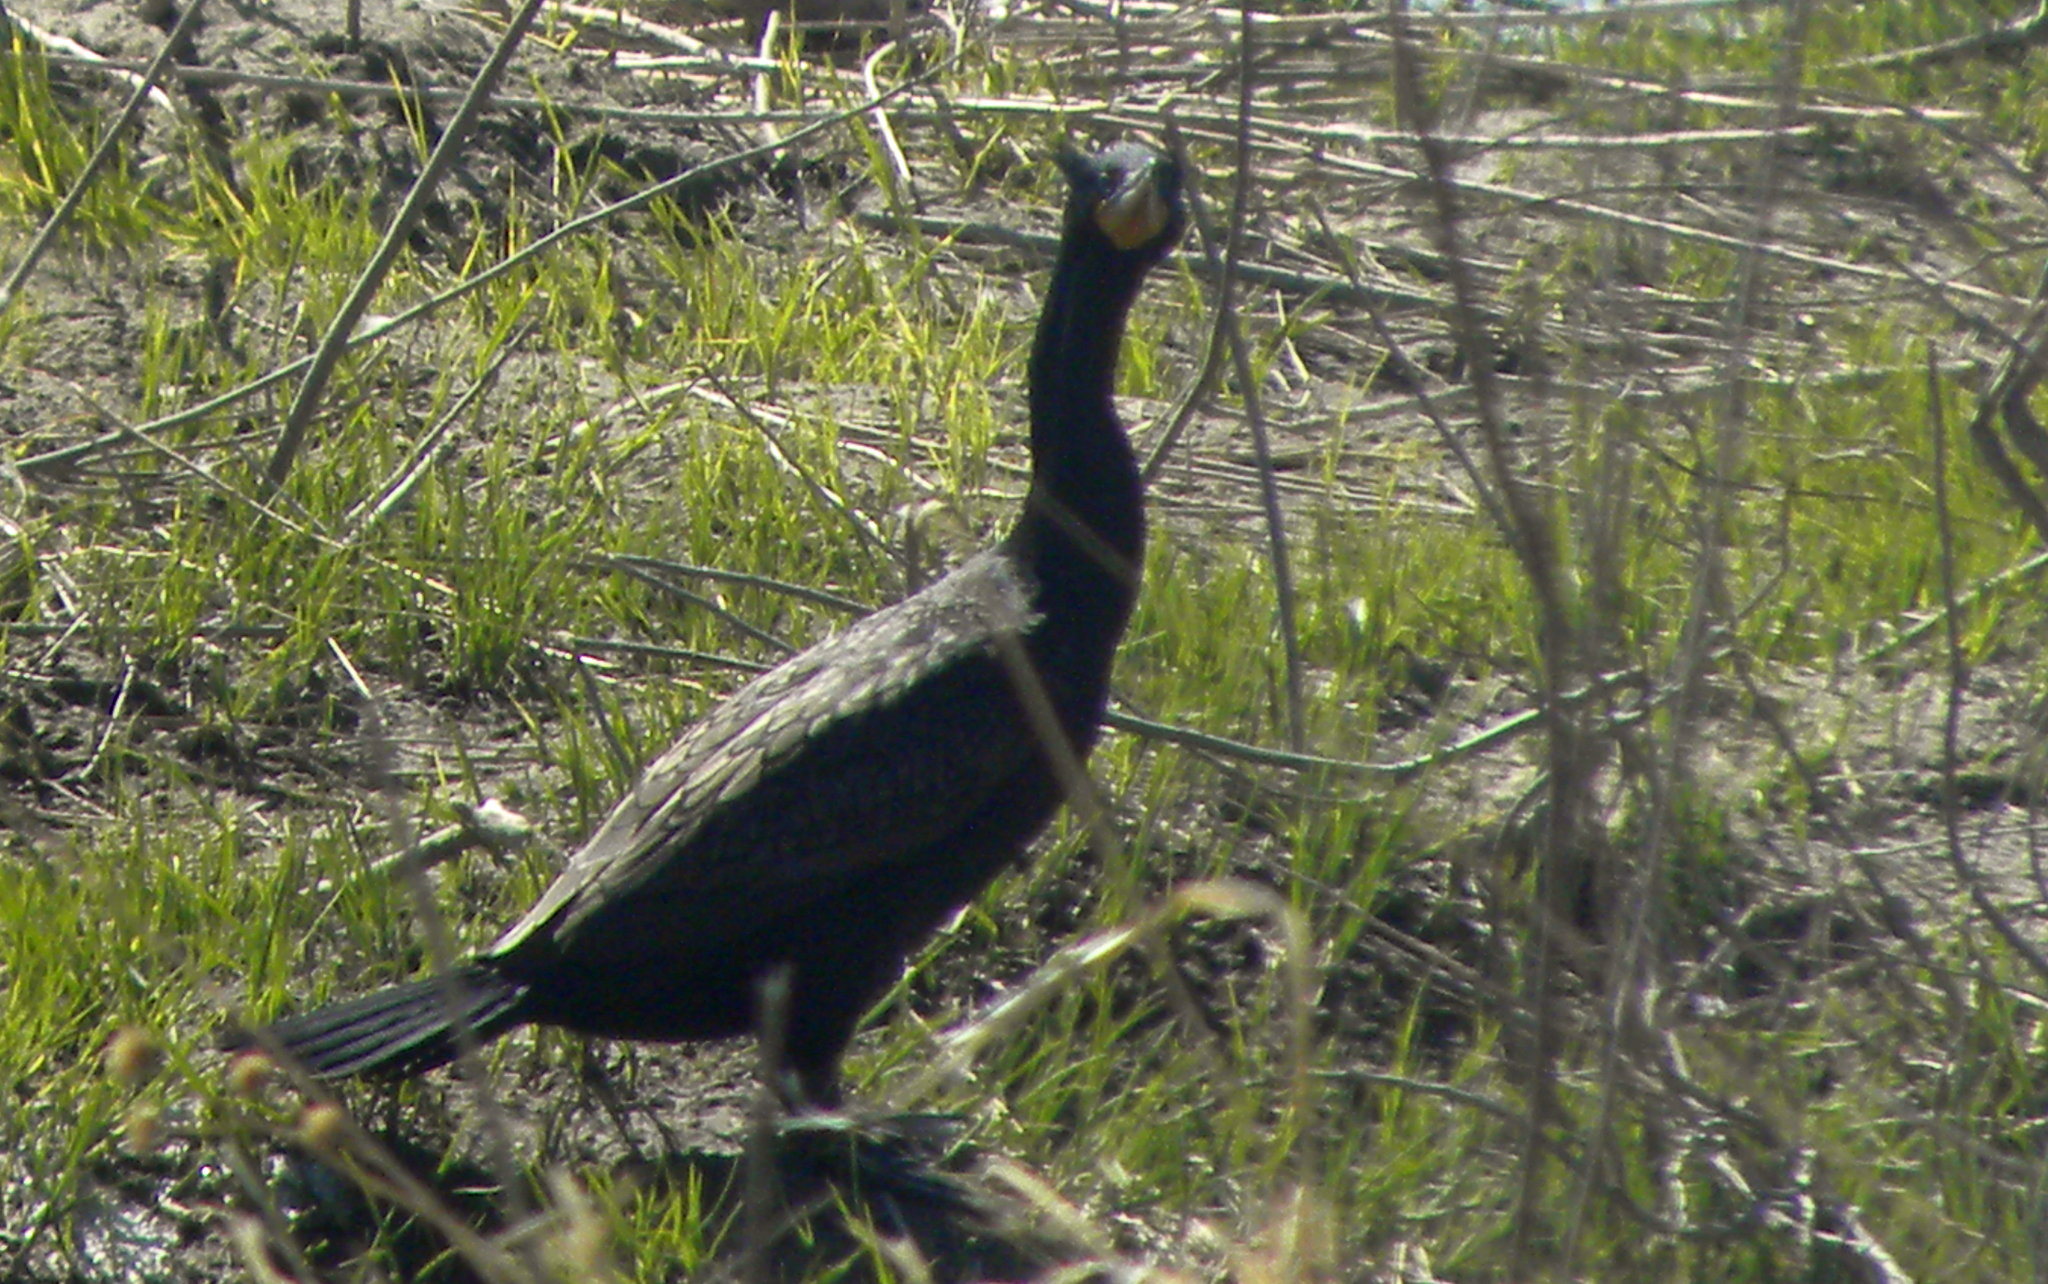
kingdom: Animalia
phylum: Chordata
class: Aves
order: Suliformes
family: Phalacrocoracidae
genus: Phalacrocorax
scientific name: Phalacrocorax auritus
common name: Double-crested cormorant
